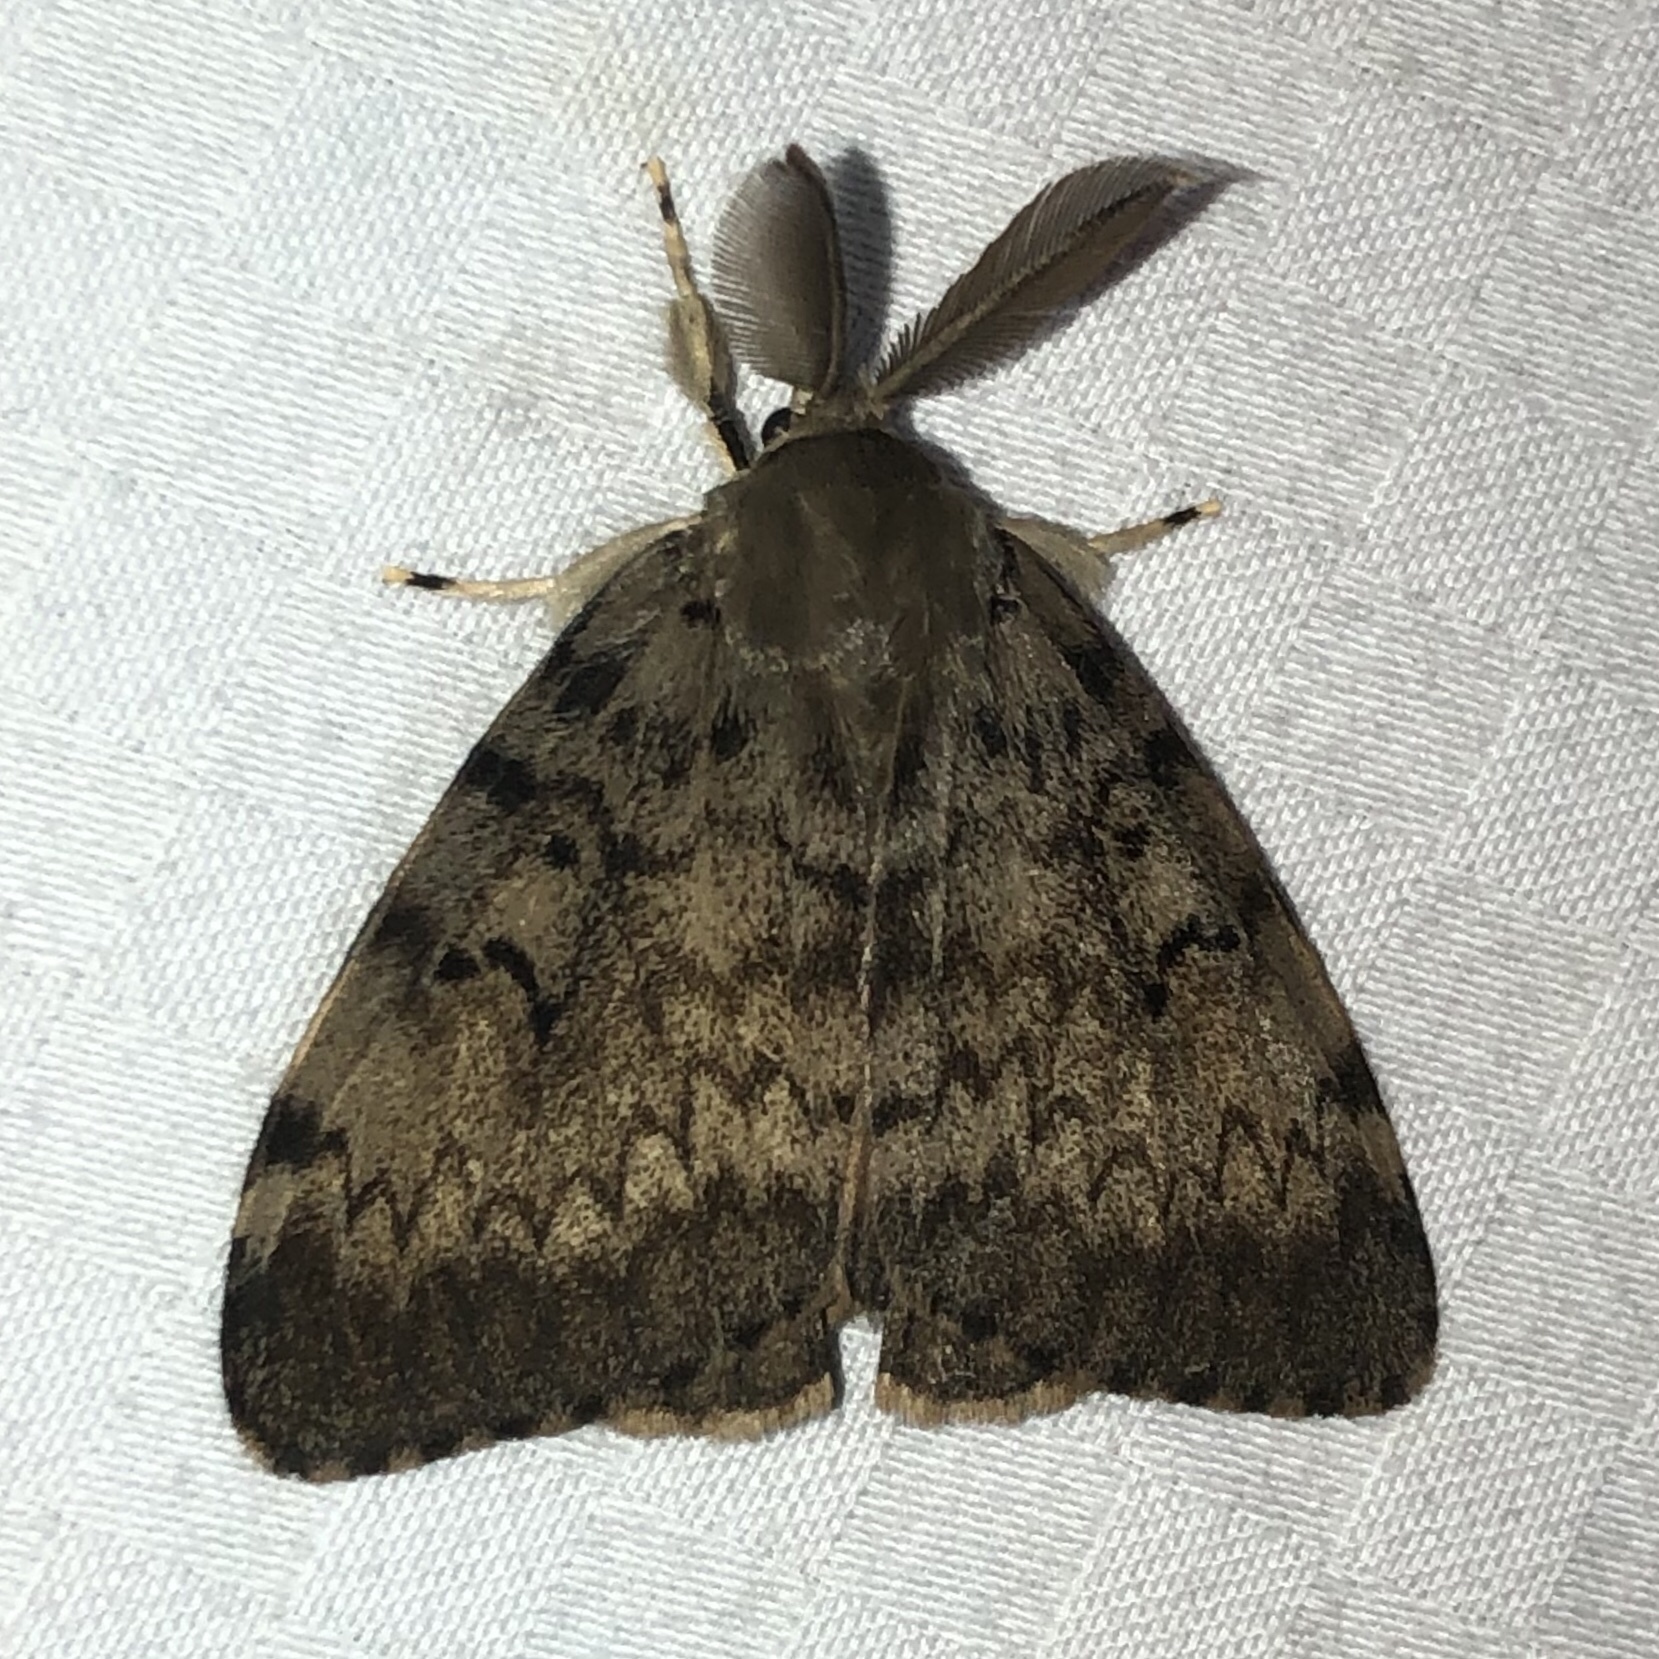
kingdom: Animalia
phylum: Arthropoda
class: Insecta
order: Lepidoptera
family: Erebidae
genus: Lymantria
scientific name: Lymantria dispar
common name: Gypsy moth
